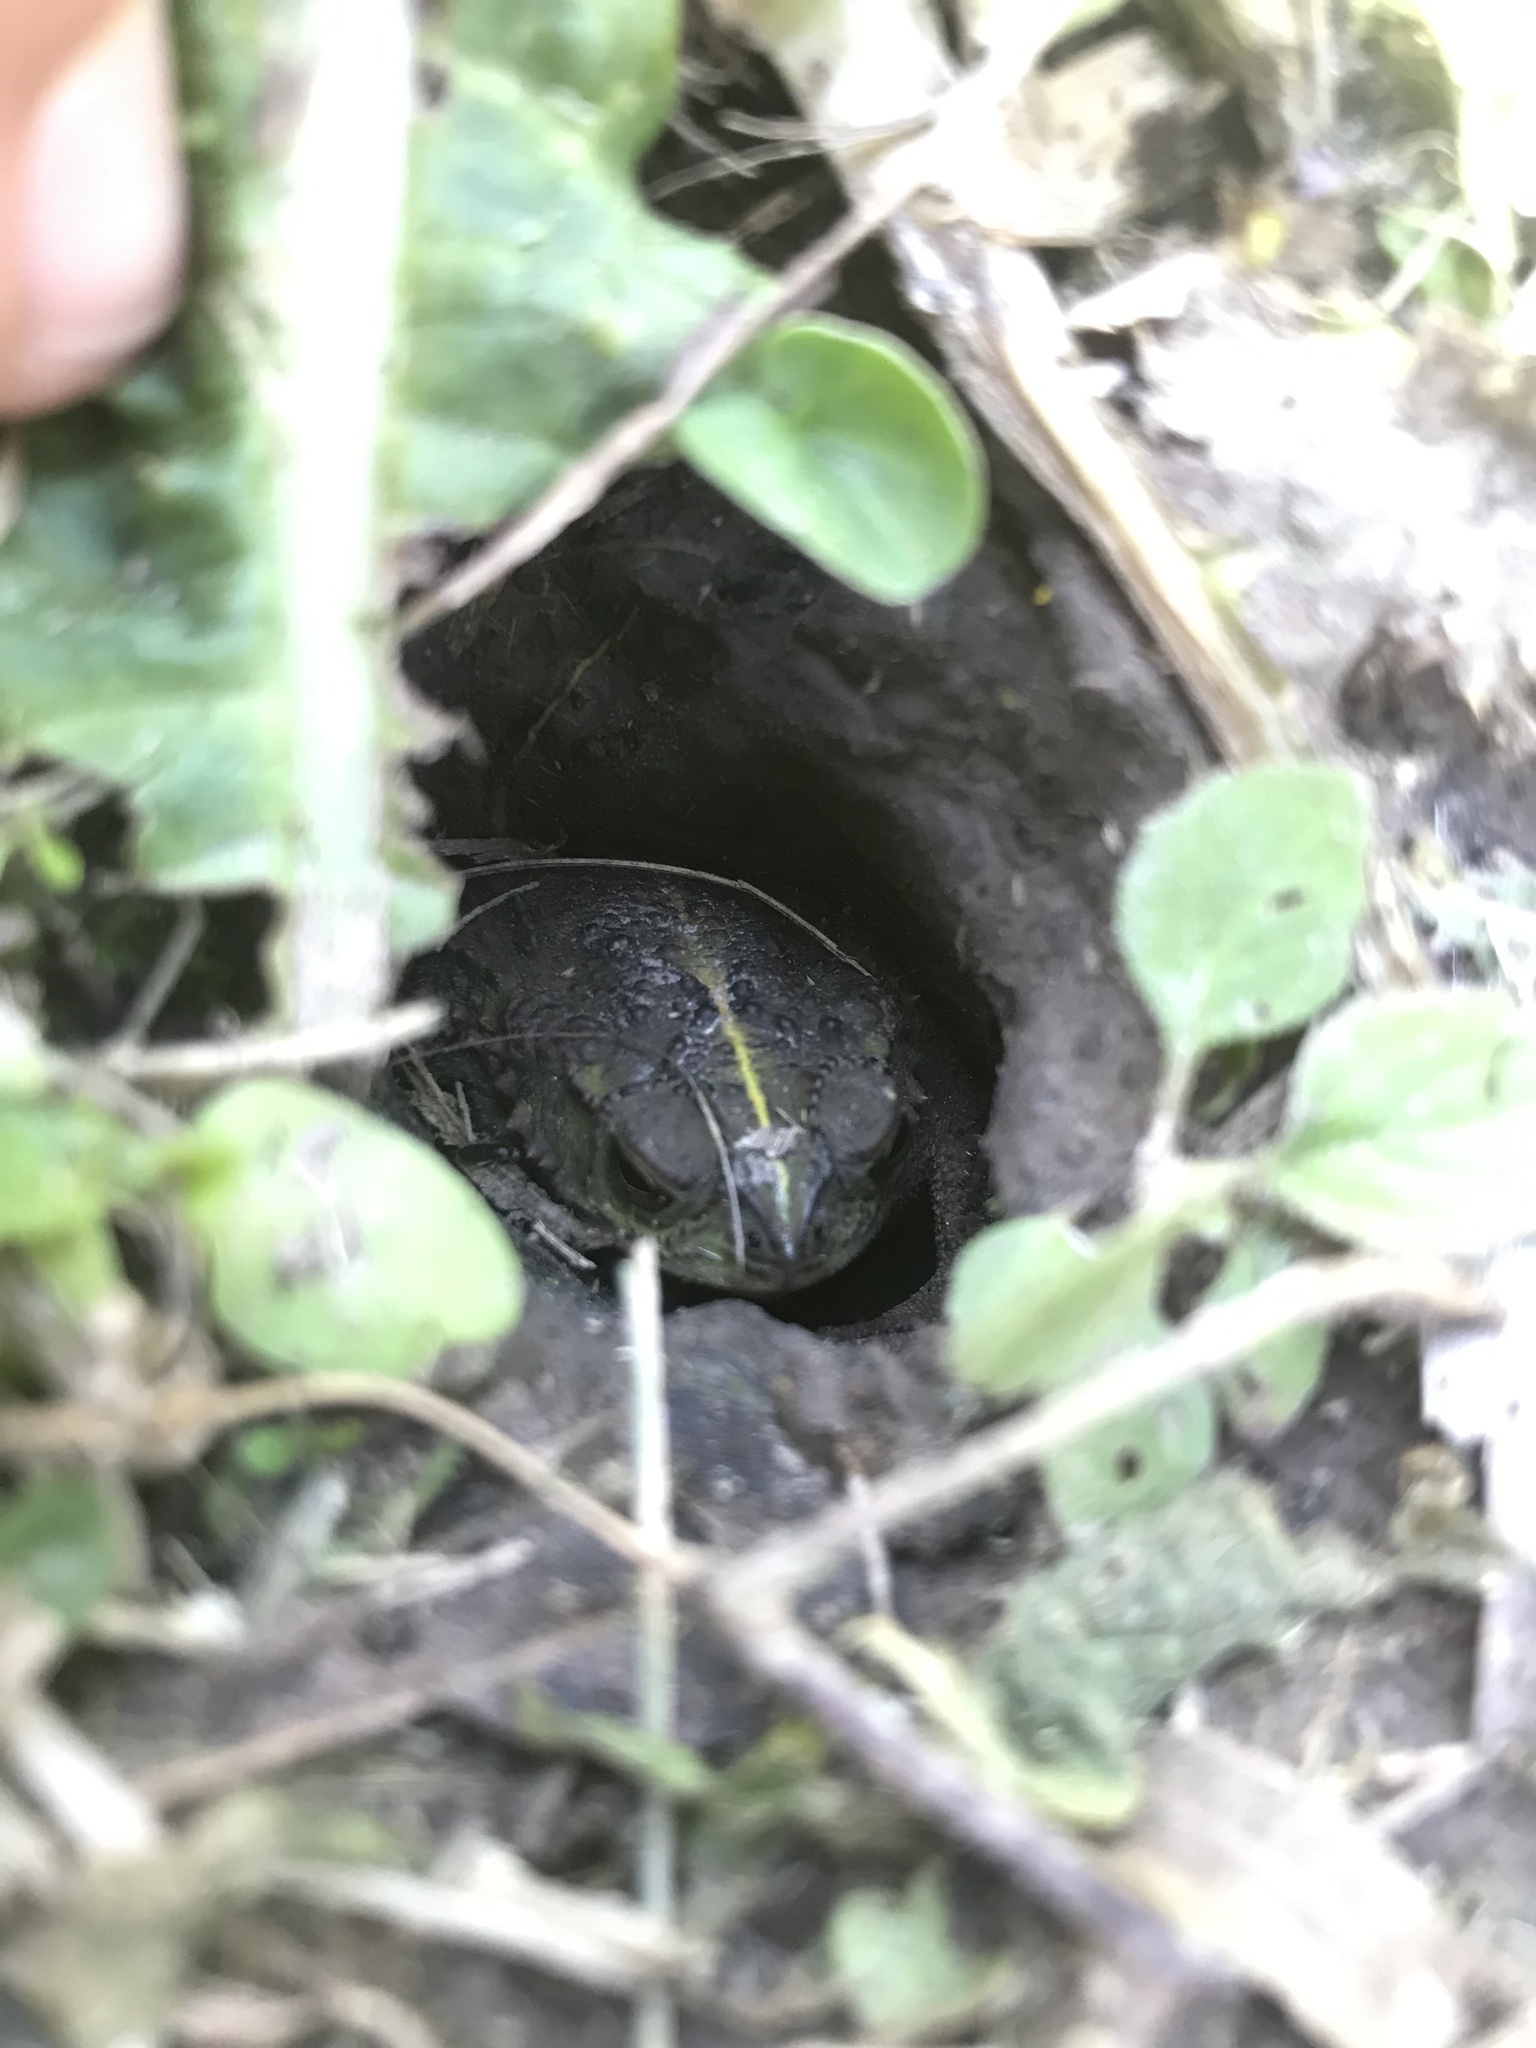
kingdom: Animalia
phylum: Chordata
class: Amphibia
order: Anura
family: Bufonidae
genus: Rhinella
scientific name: Rhinella dorbignyi
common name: D´orbigny’s toad
